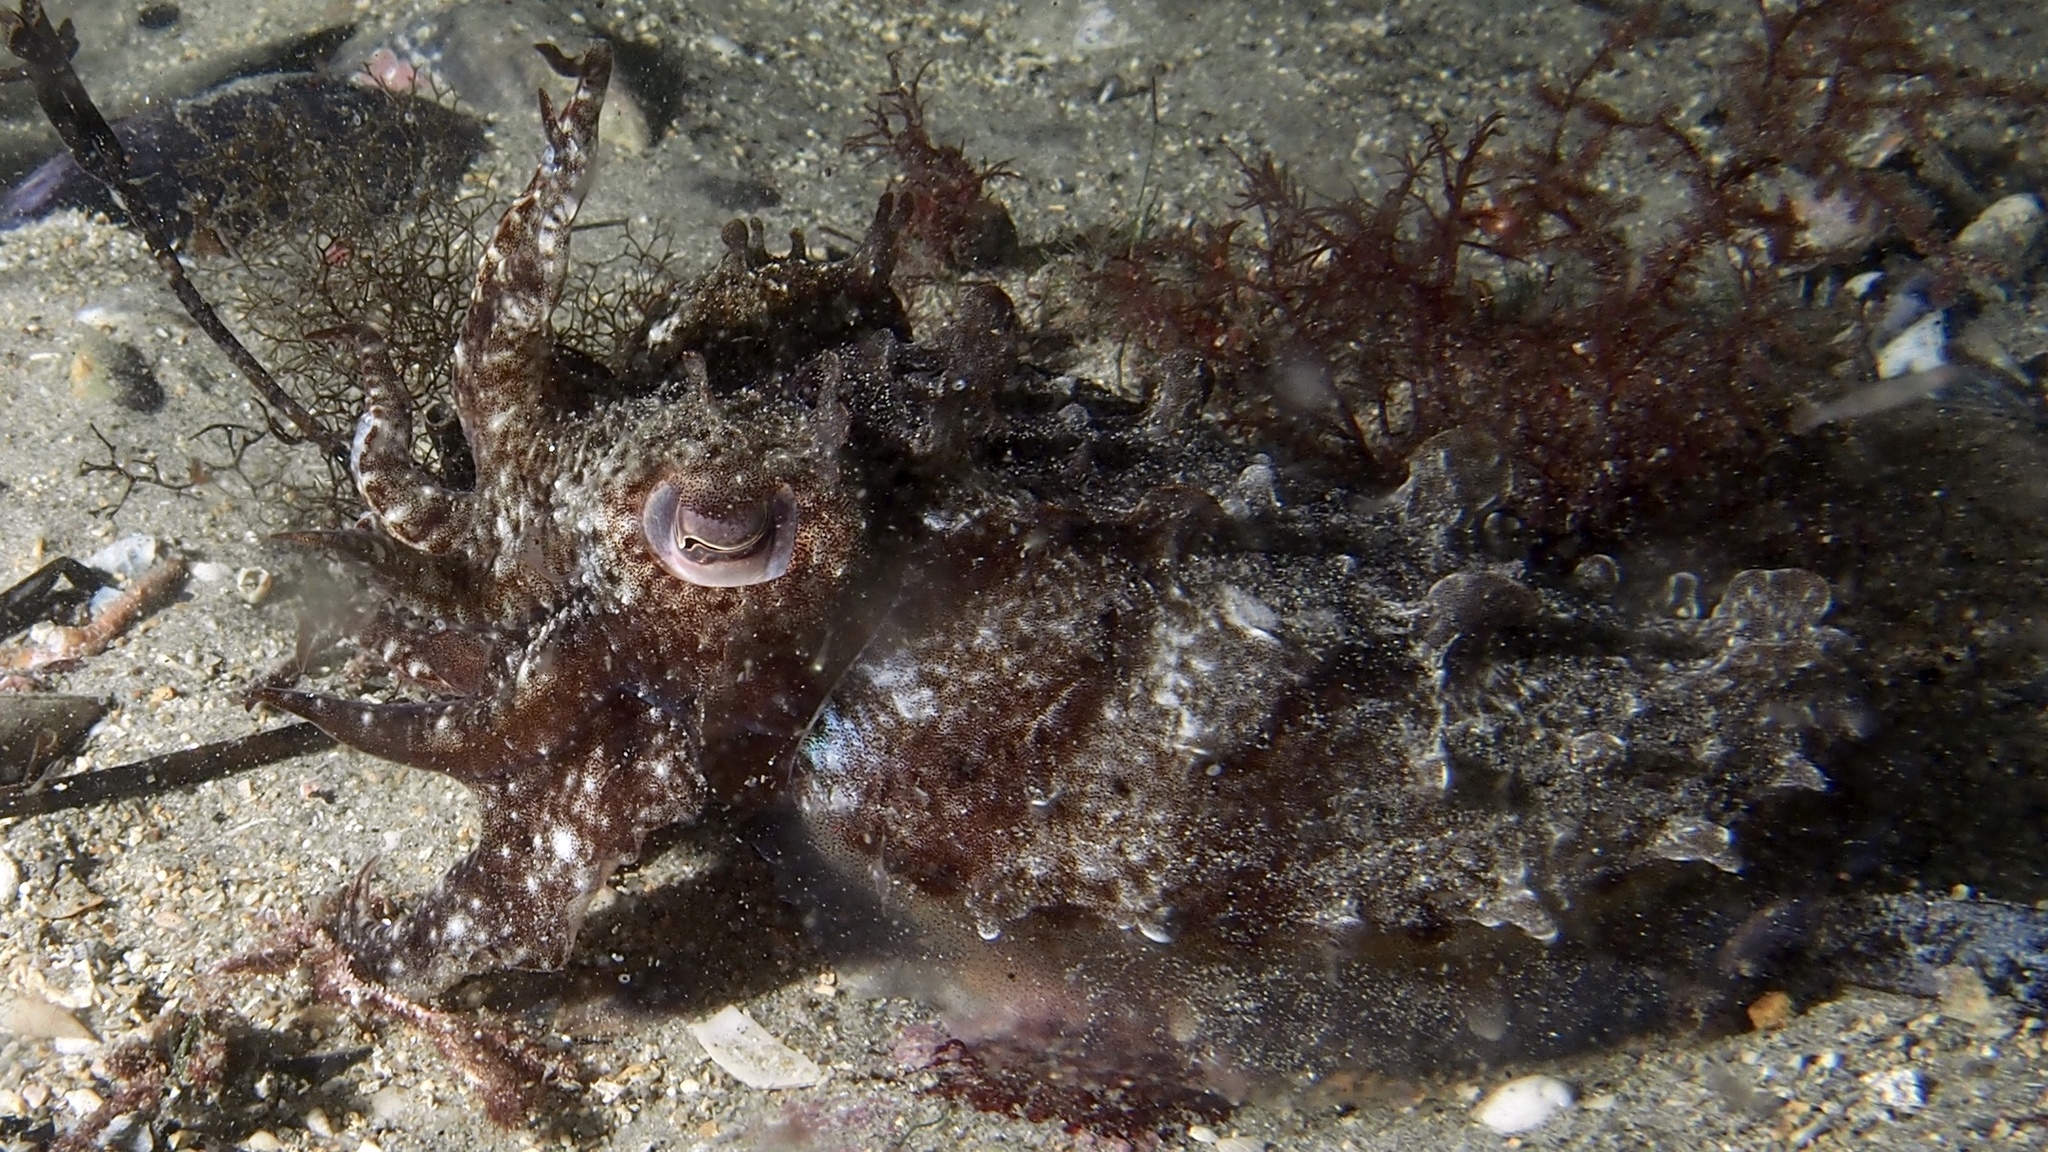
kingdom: Animalia
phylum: Mollusca
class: Cephalopoda
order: Sepiida
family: Sepiidae
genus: Ascarosepion
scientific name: Ascarosepion apama
